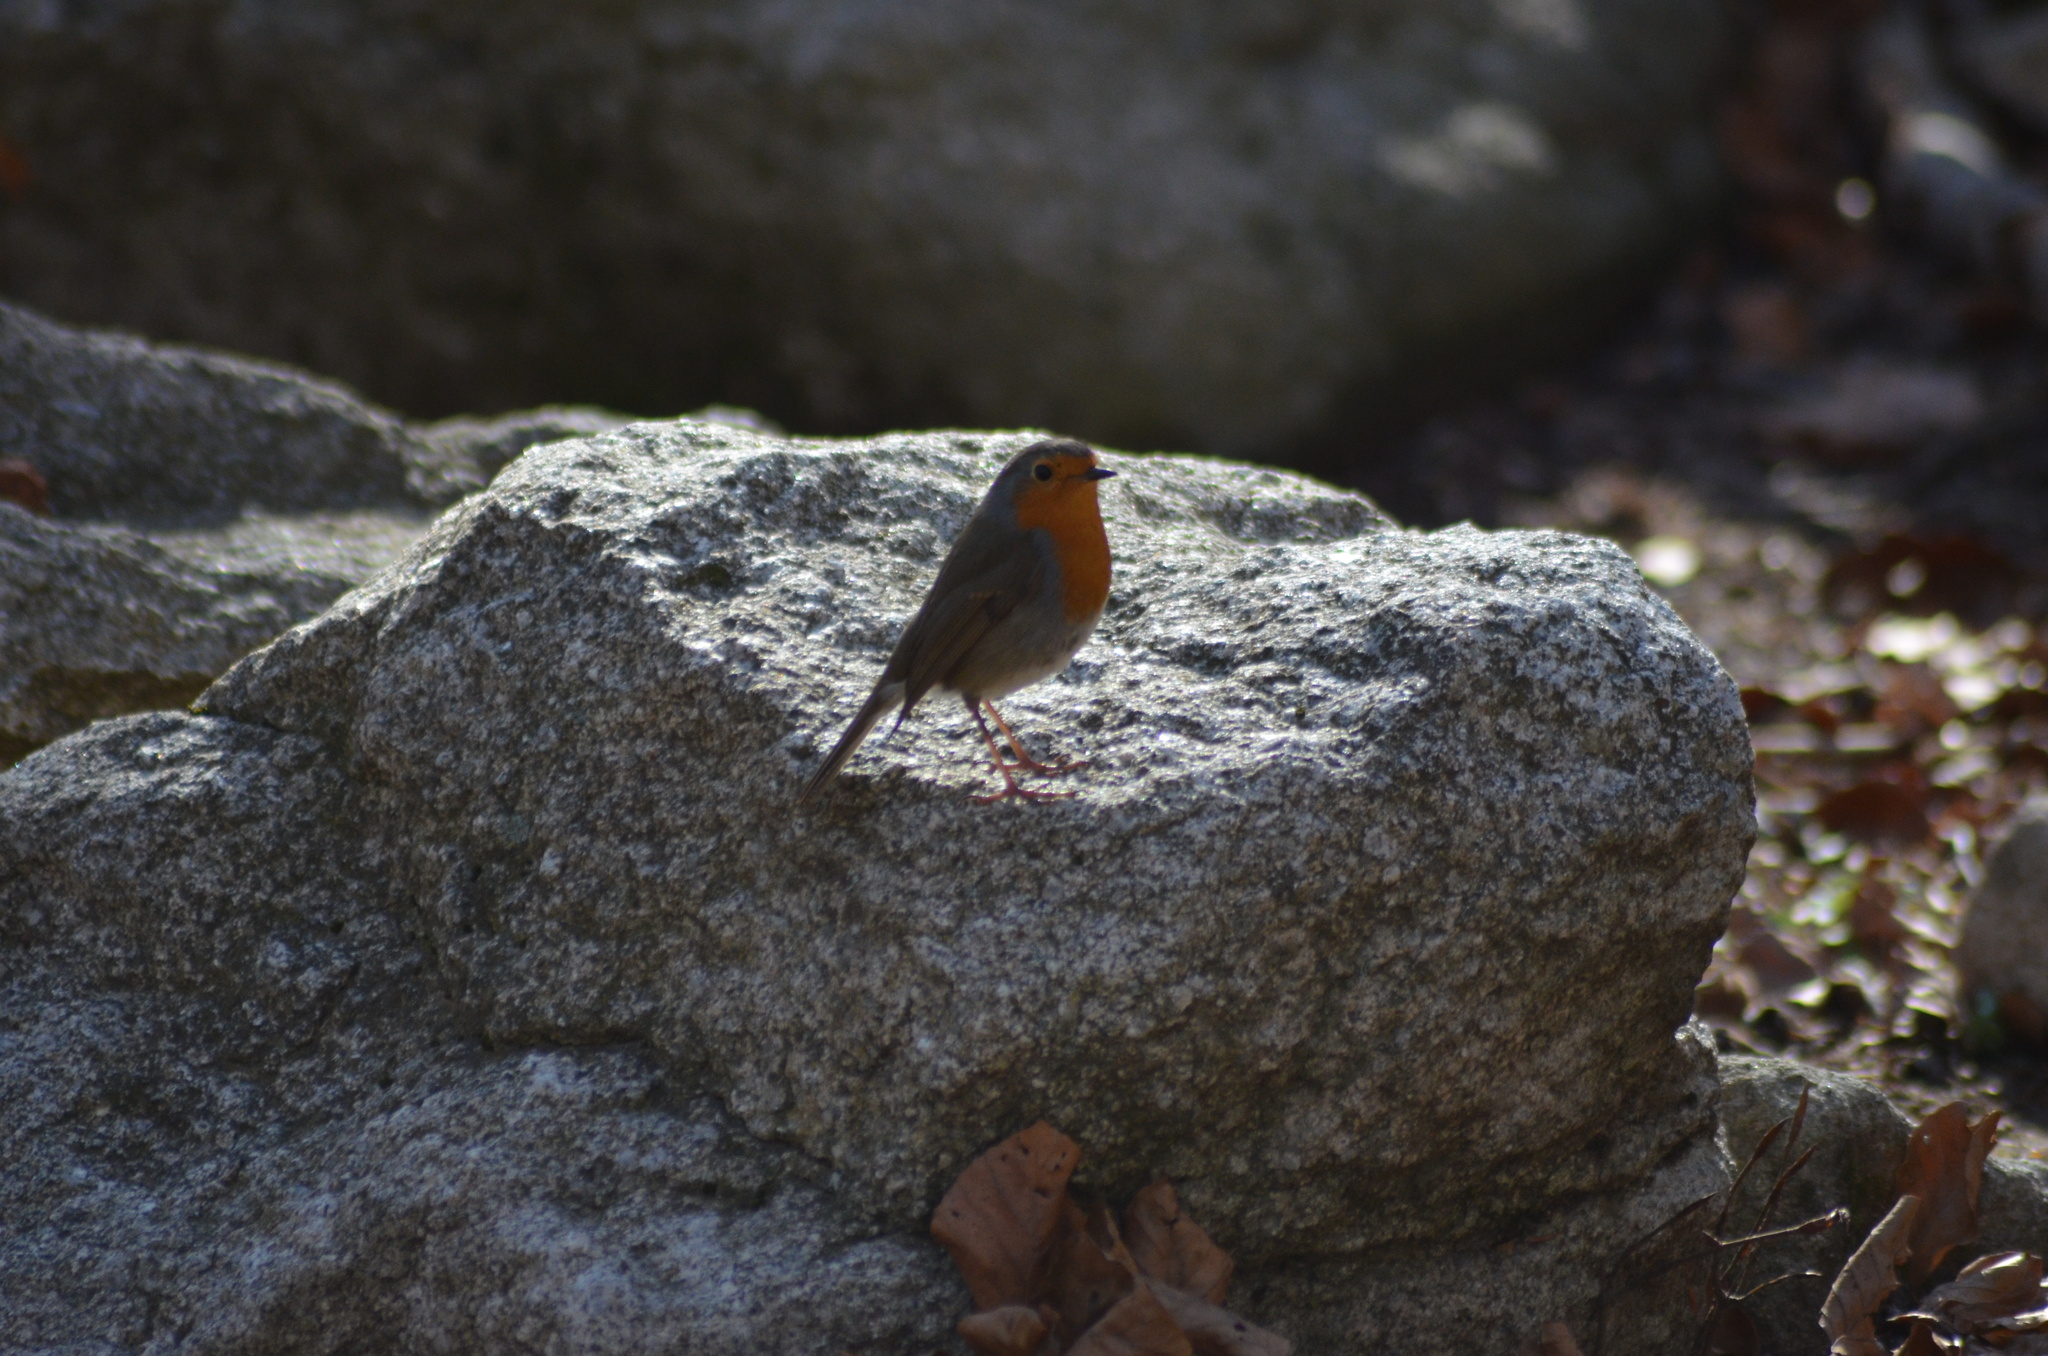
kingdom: Animalia
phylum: Chordata
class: Aves
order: Passeriformes
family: Muscicapidae
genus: Erithacus
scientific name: Erithacus rubecula
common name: European robin
